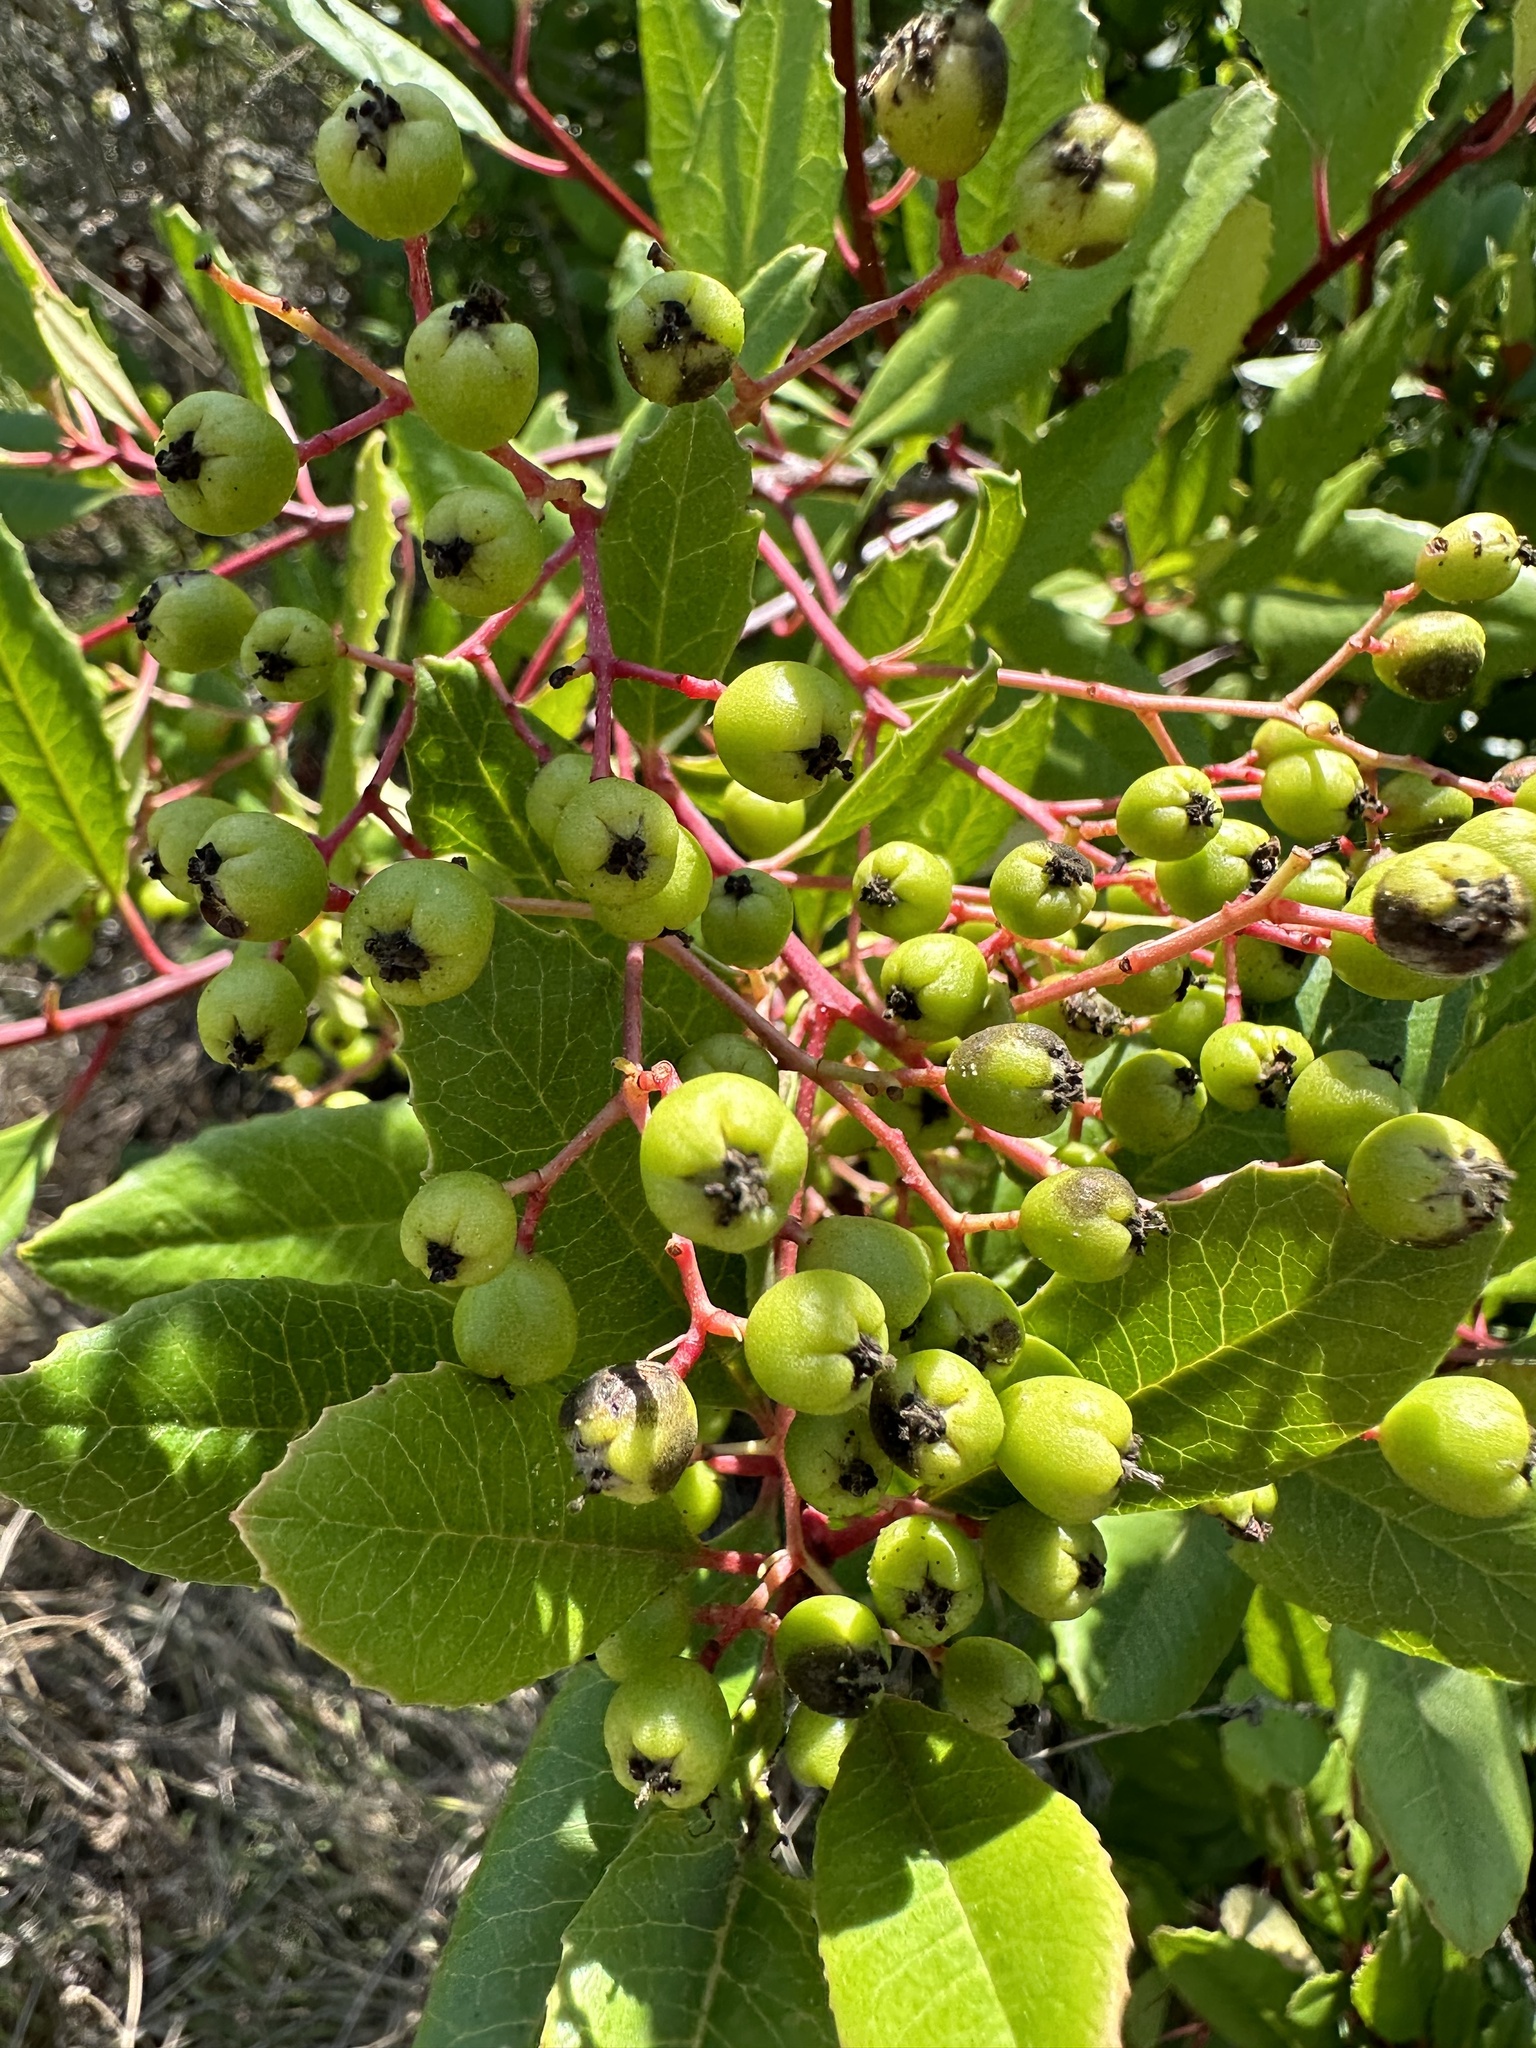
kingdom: Plantae
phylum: Tracheophyta
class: Magnoliopsida
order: Rosales
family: Rosaceae
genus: Heteromeles
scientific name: Heteromeles arbutifolia
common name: California-holly
